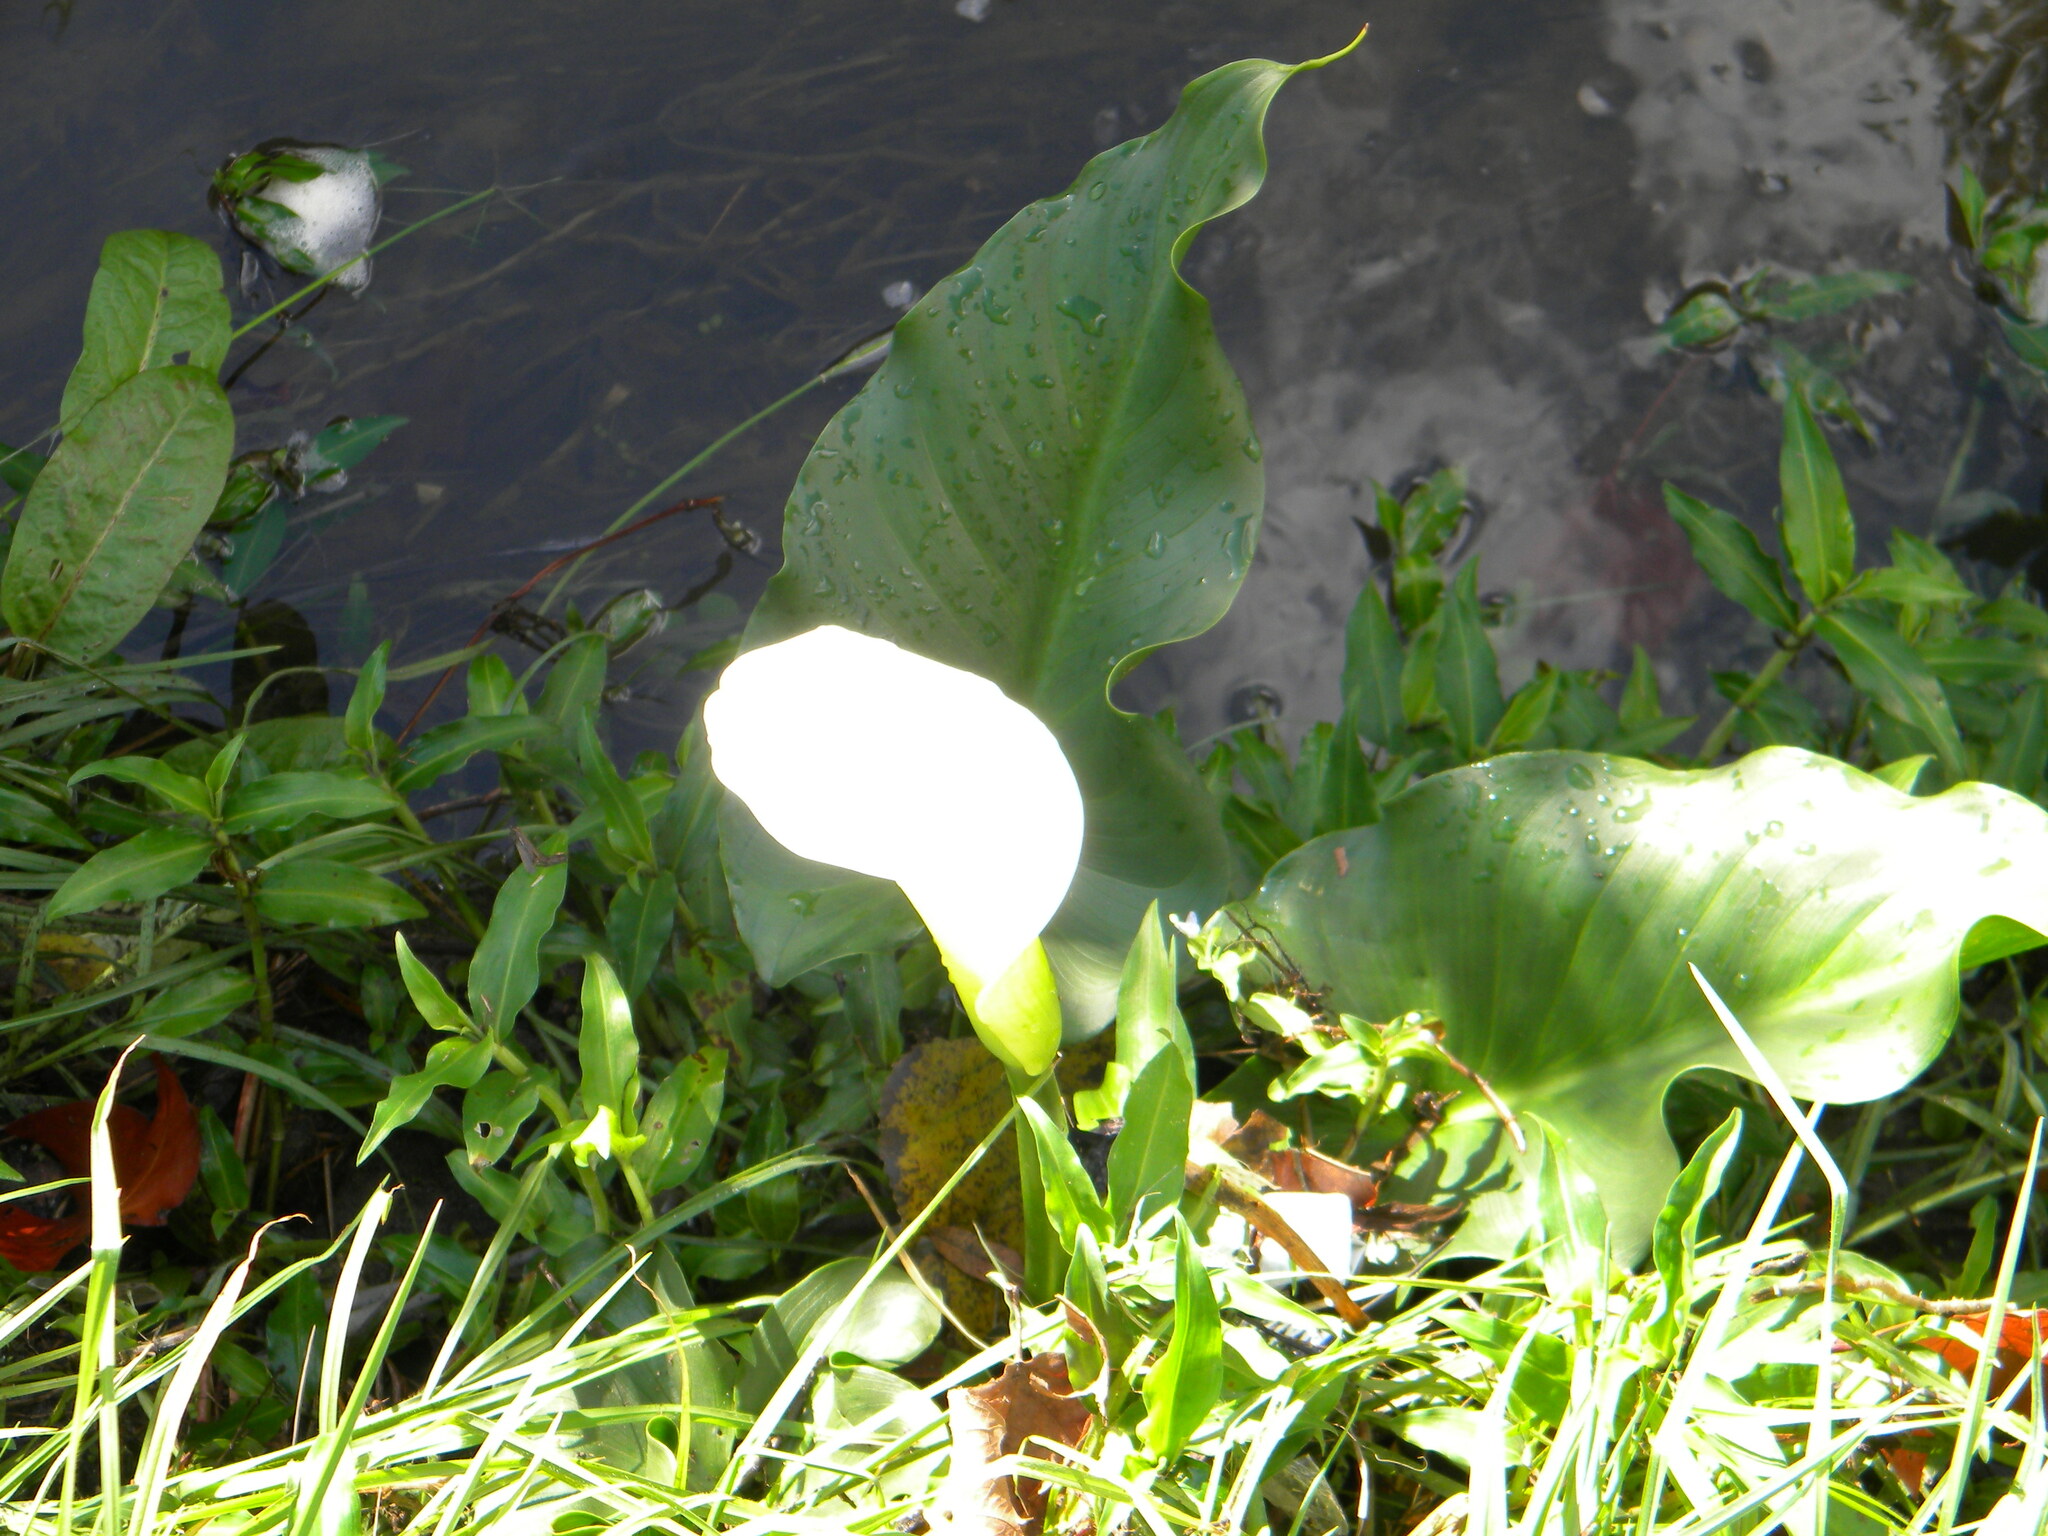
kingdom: Plantae
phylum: Tracheophyta
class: Liliopsida
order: Alismatales
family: Araceae
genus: Zantedeschia
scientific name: Zantedeschia aethiopica
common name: Altar-lily
